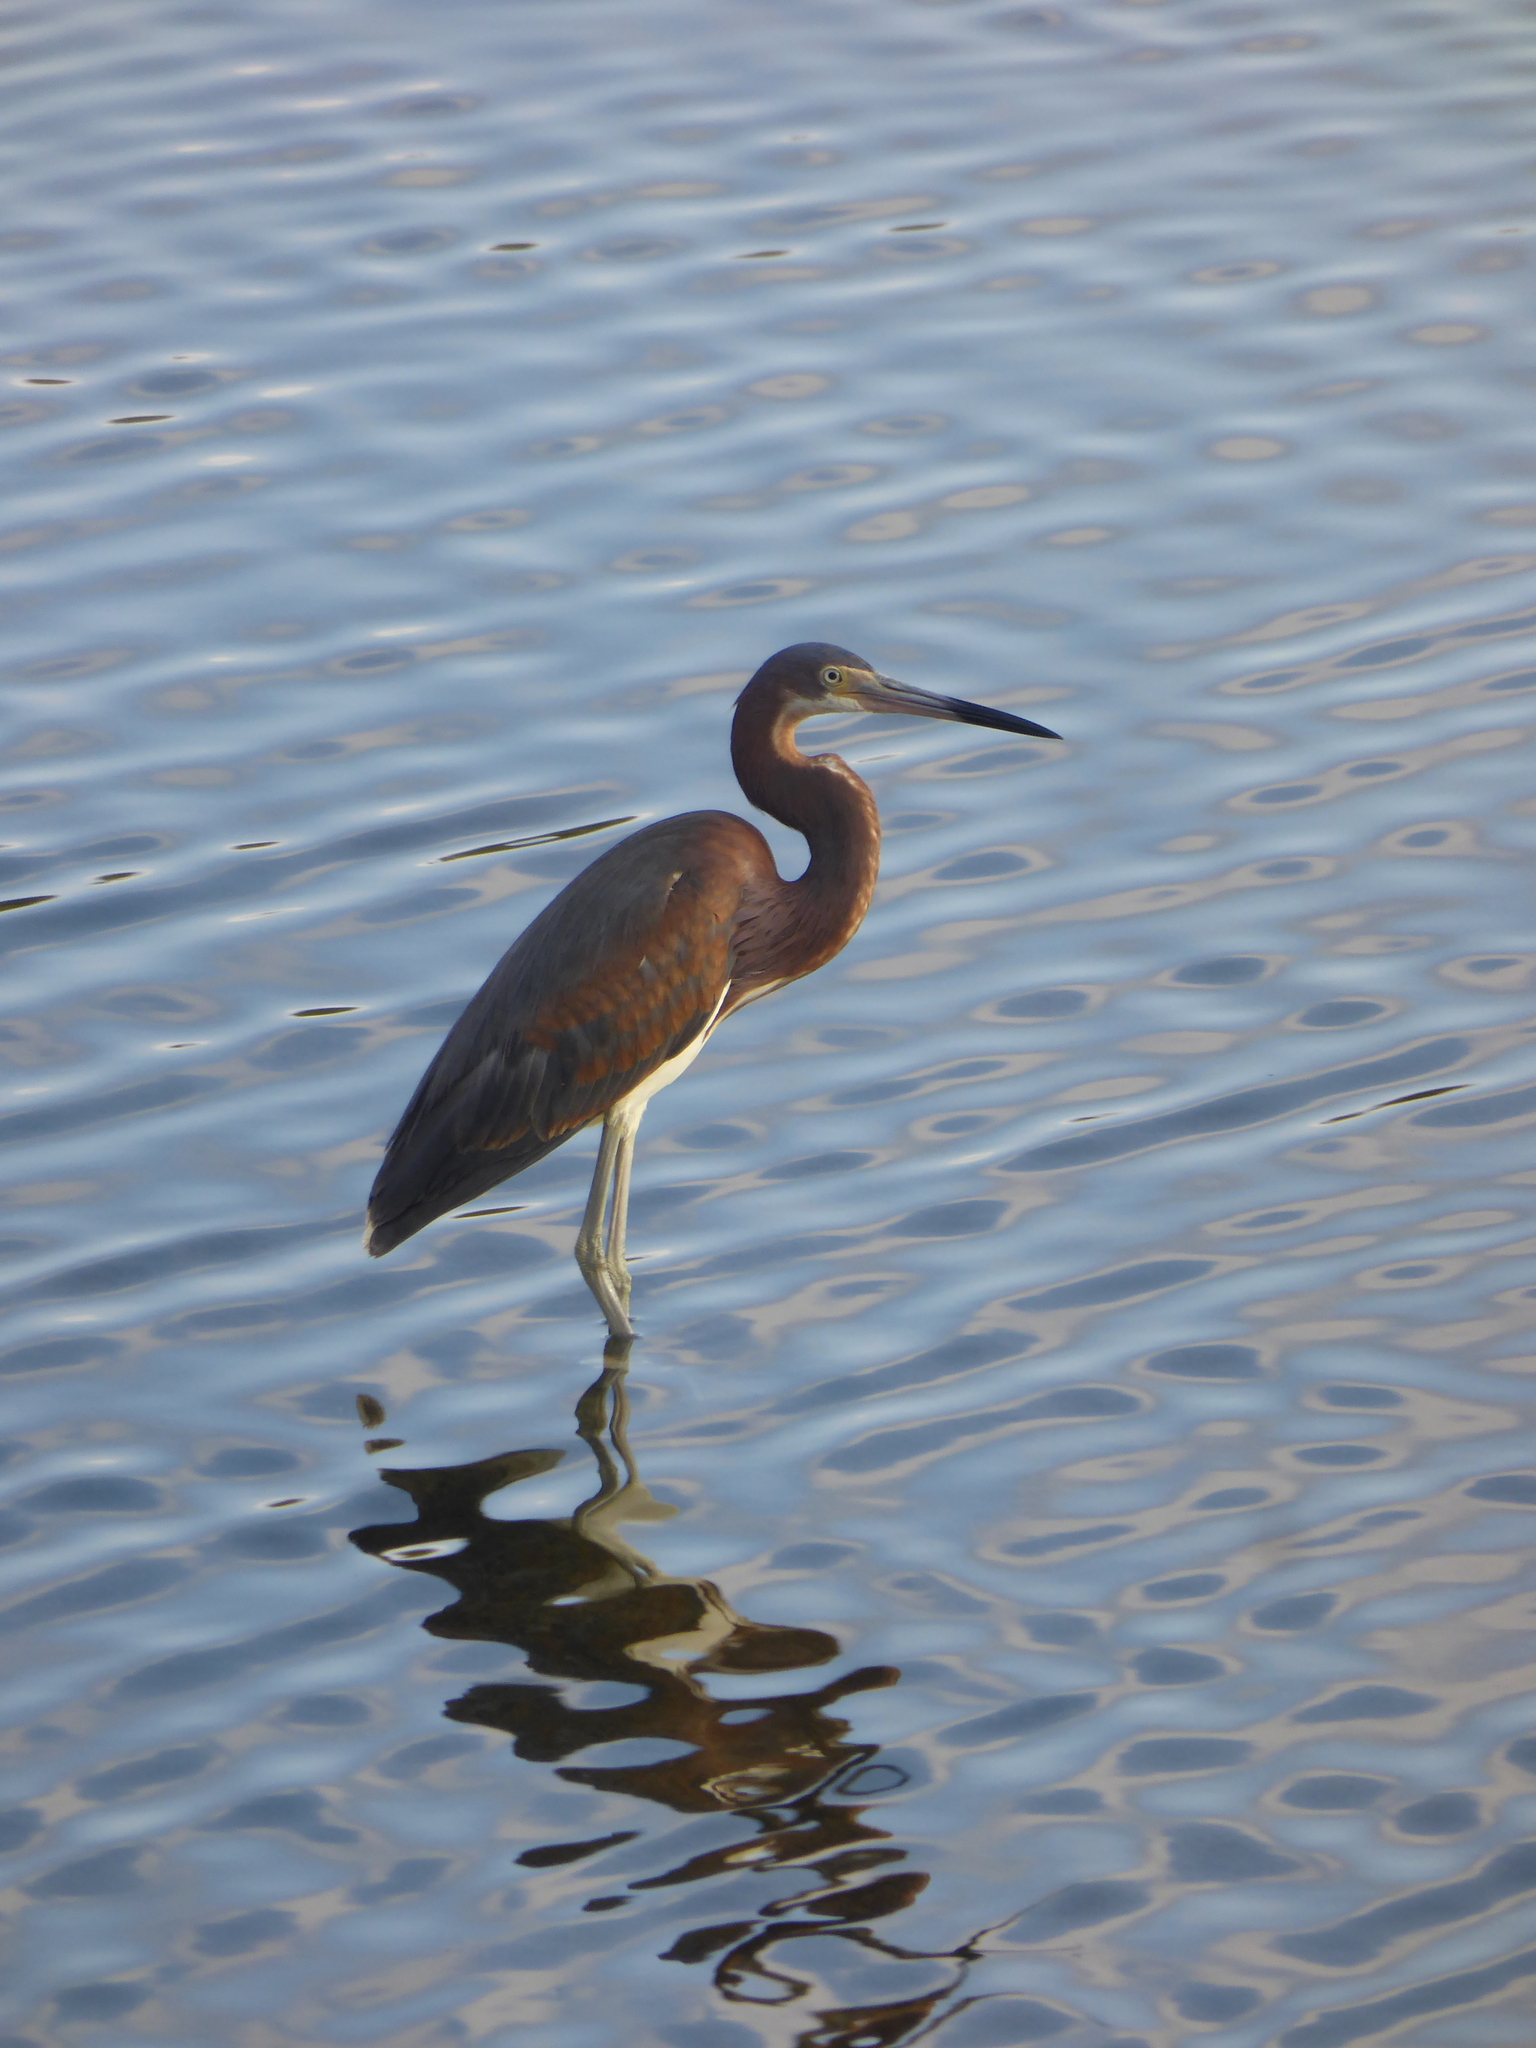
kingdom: Animalia
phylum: Chordata
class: Aves
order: Pelecaniformes
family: Ardeidae
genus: Egretta
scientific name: Egretta tricolor
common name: Tricolored heron
